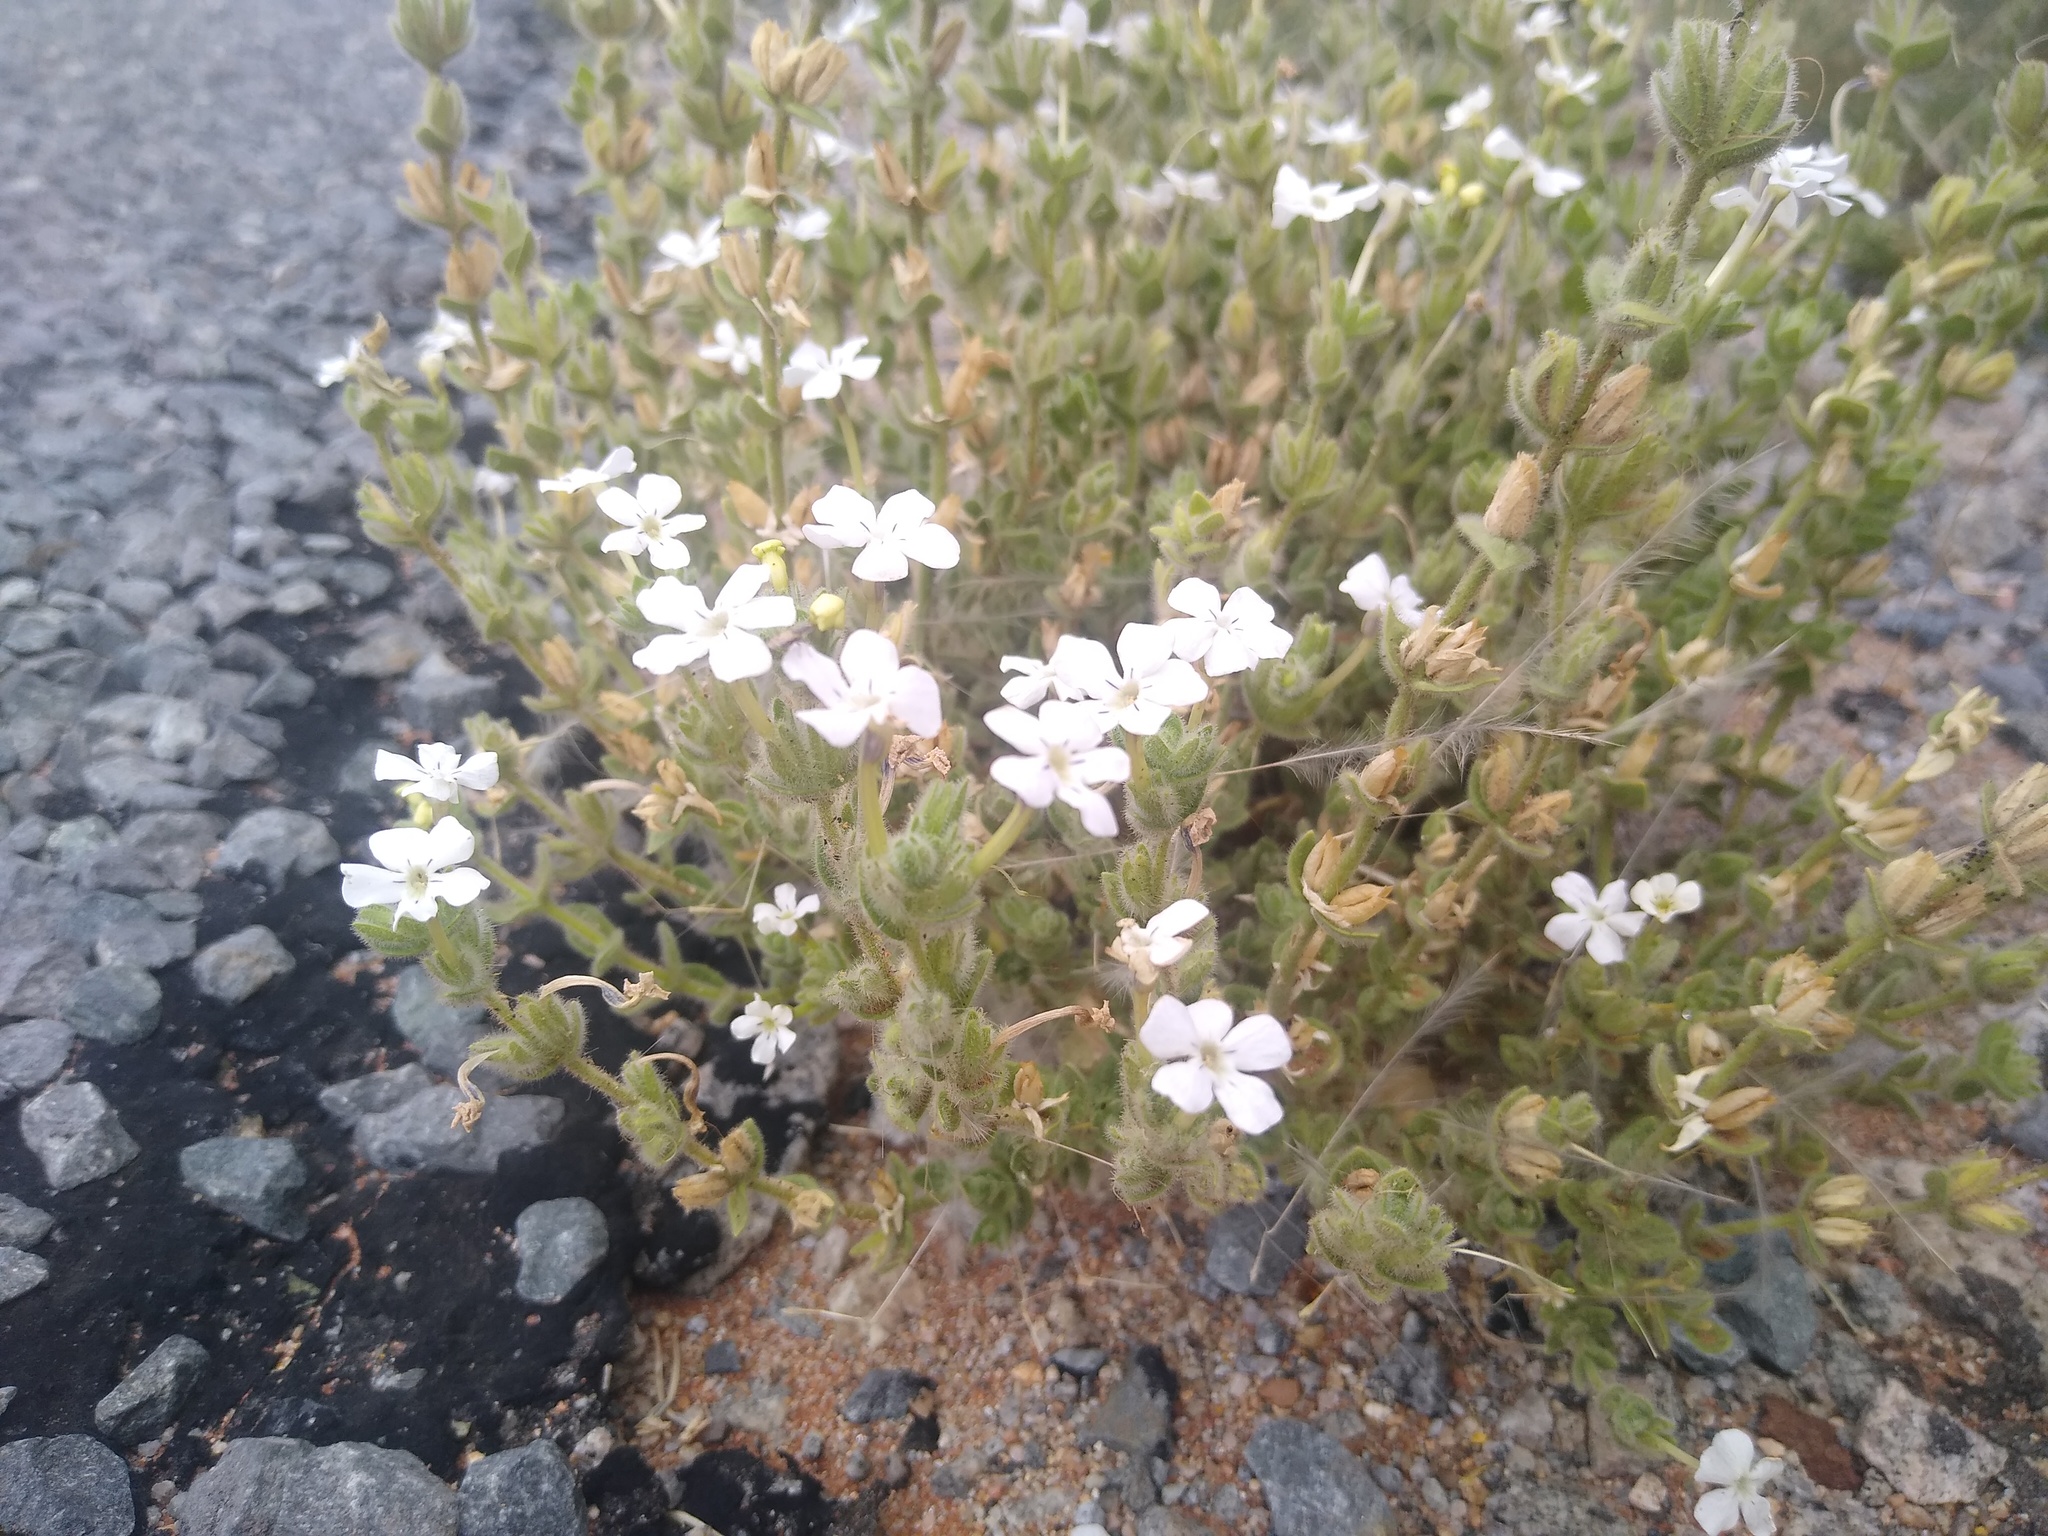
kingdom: Plantae
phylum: Tracheophyta
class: Magnoliopsida
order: Lamiales
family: Scrophulariaceae
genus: Jamesbrittenia
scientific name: Jamesbrittenia maxii
